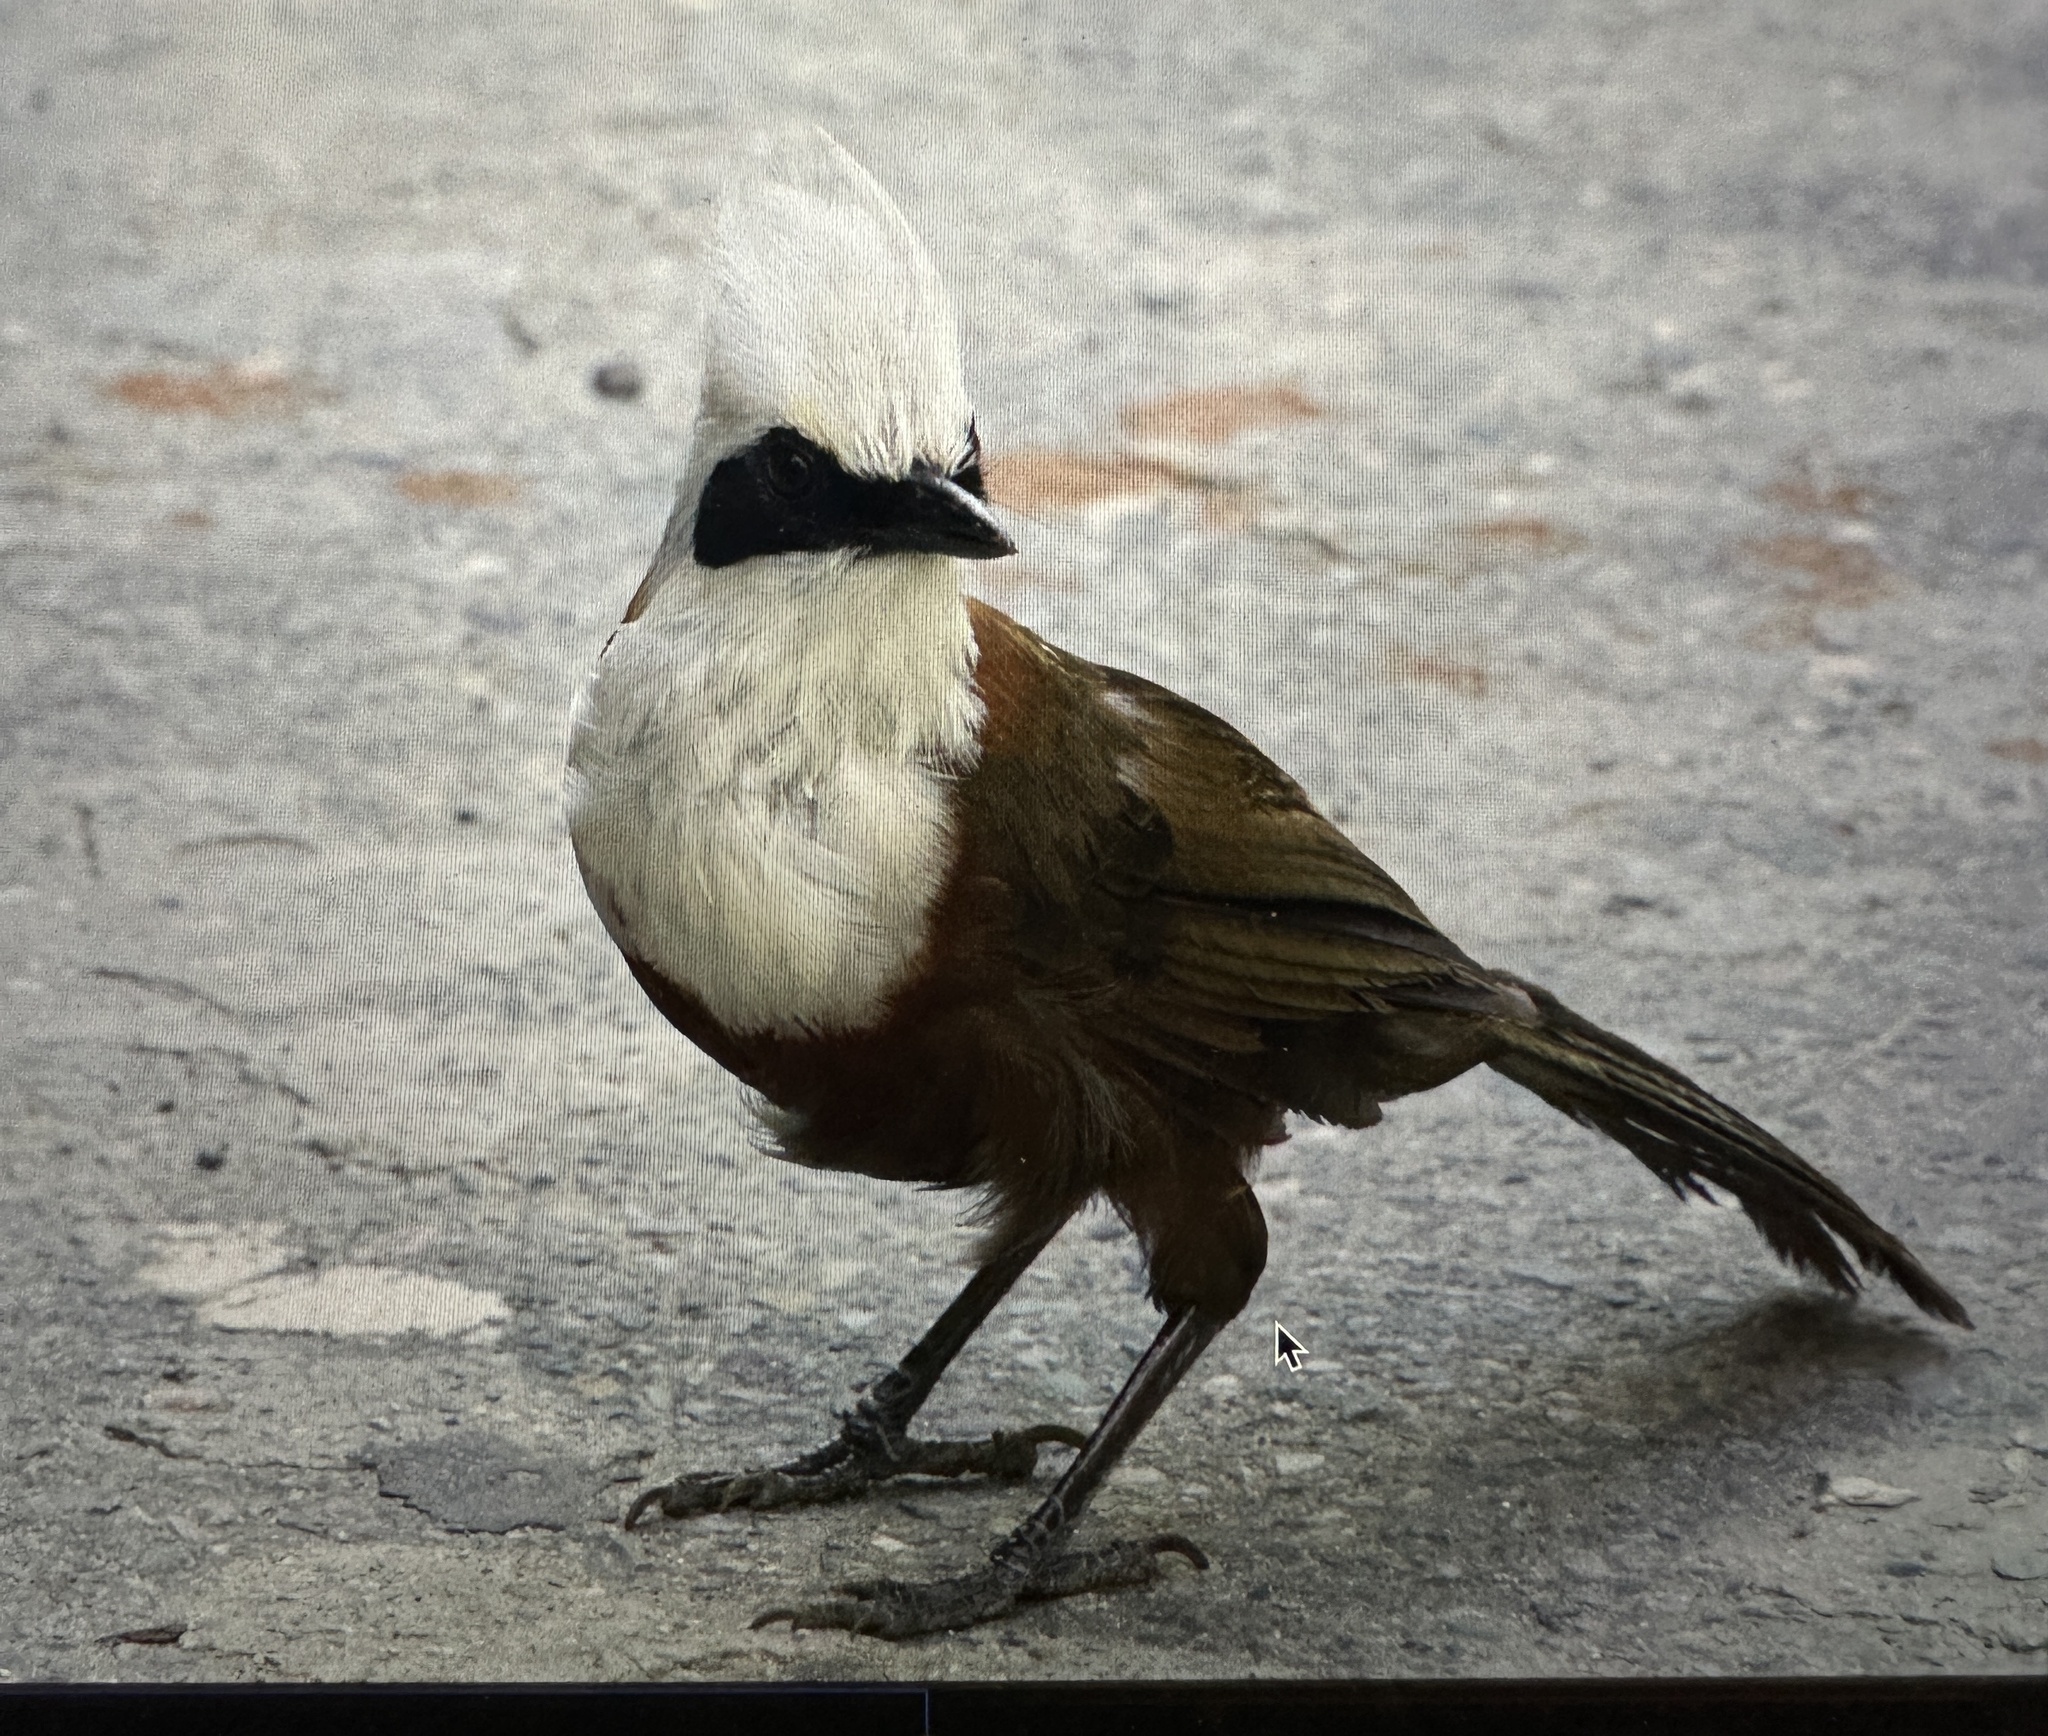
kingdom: Animalia
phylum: Chordata
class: Aves
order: Passeriformes
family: Leiothrichidae
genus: Garrulax
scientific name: Garrulax leucolophus
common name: White-crested laughingthrush
